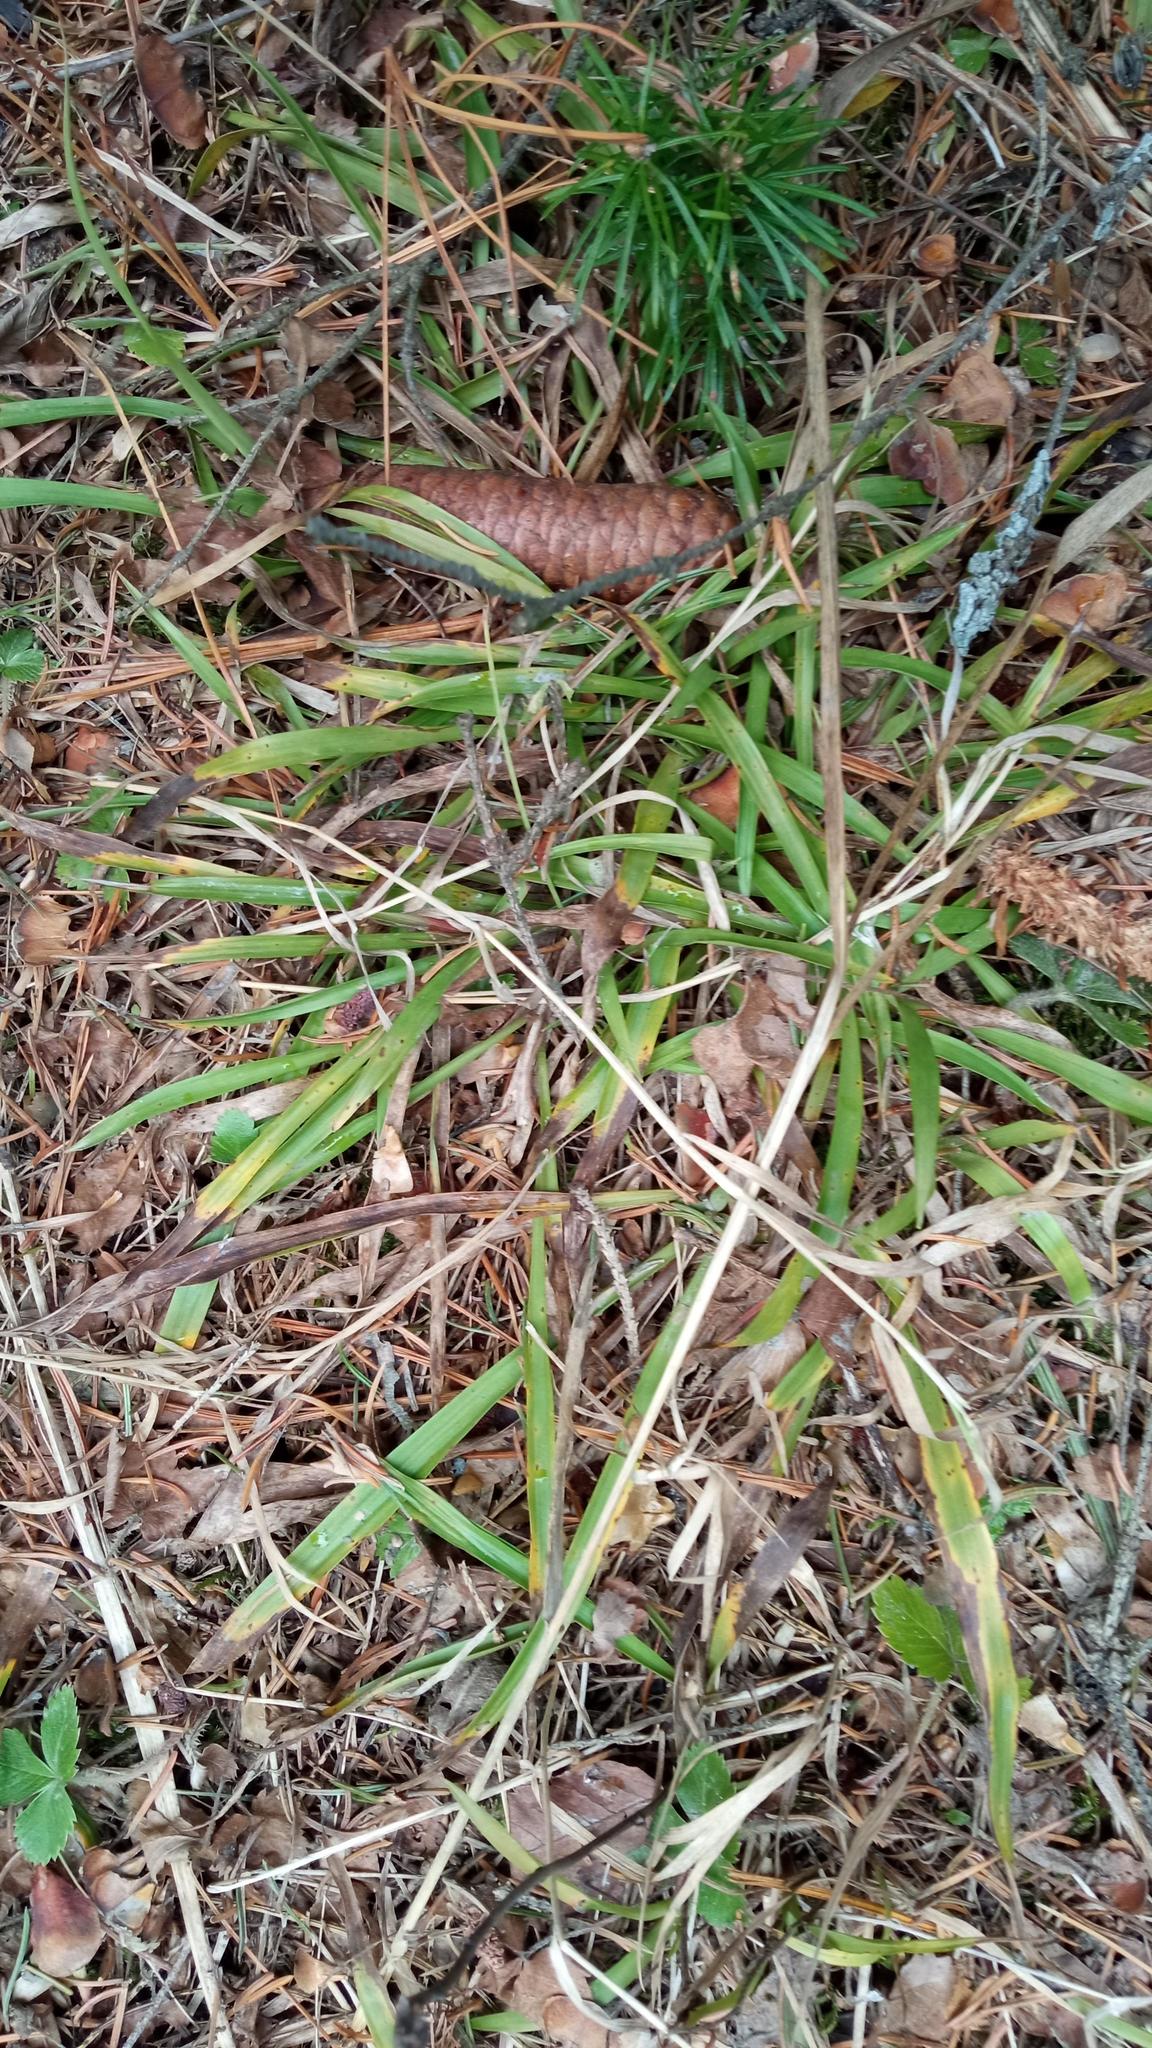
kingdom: Plantae
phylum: Tracheophyta
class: Liliopsida
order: Poales
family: Juncaceae
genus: Luzula
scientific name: Luzula pilosa
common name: Hairy wood-rush
